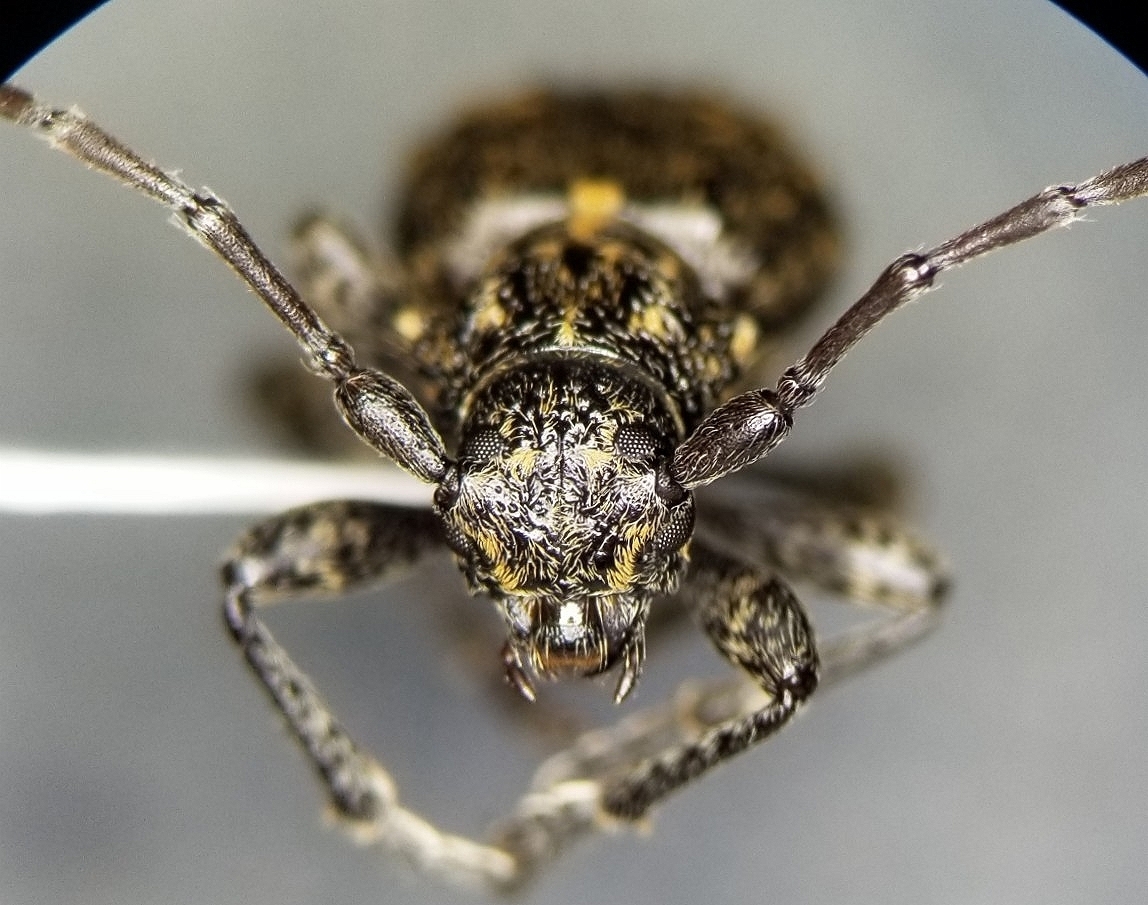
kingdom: Animalia
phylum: Arthropoda
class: Insecta
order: Coleoptera
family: Cerambycidae
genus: Plectrura
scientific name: Plectrura spinicauda
